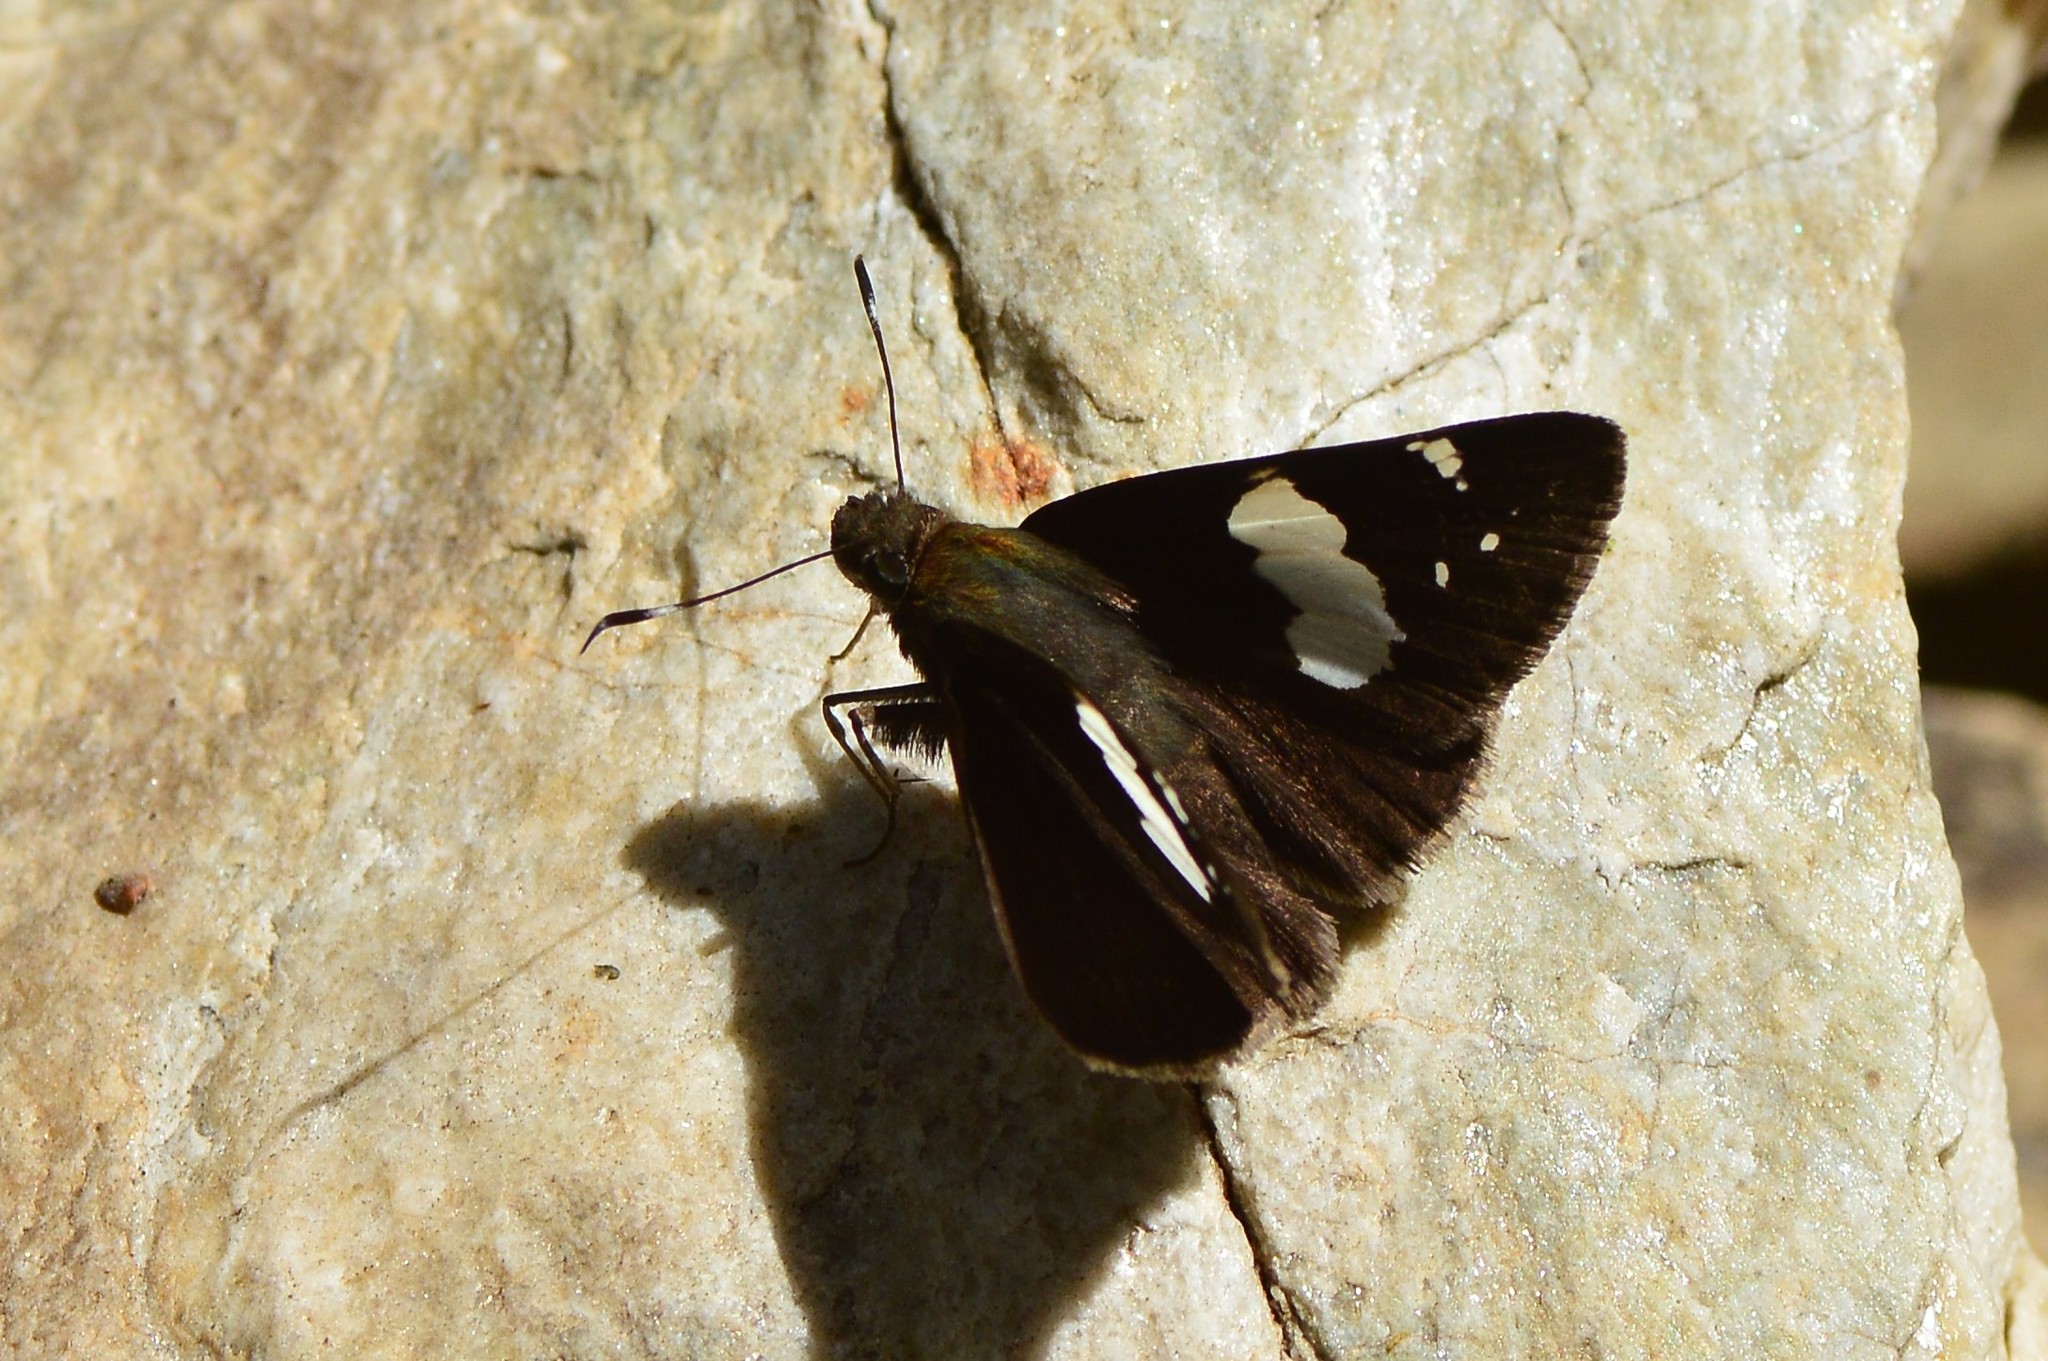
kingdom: Animalia
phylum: Arthropoda
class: Insecta
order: Lepidoptera
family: Hesperiidae
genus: Notocrypta
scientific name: Notocrypta feisthamelii
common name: Spotted demon
